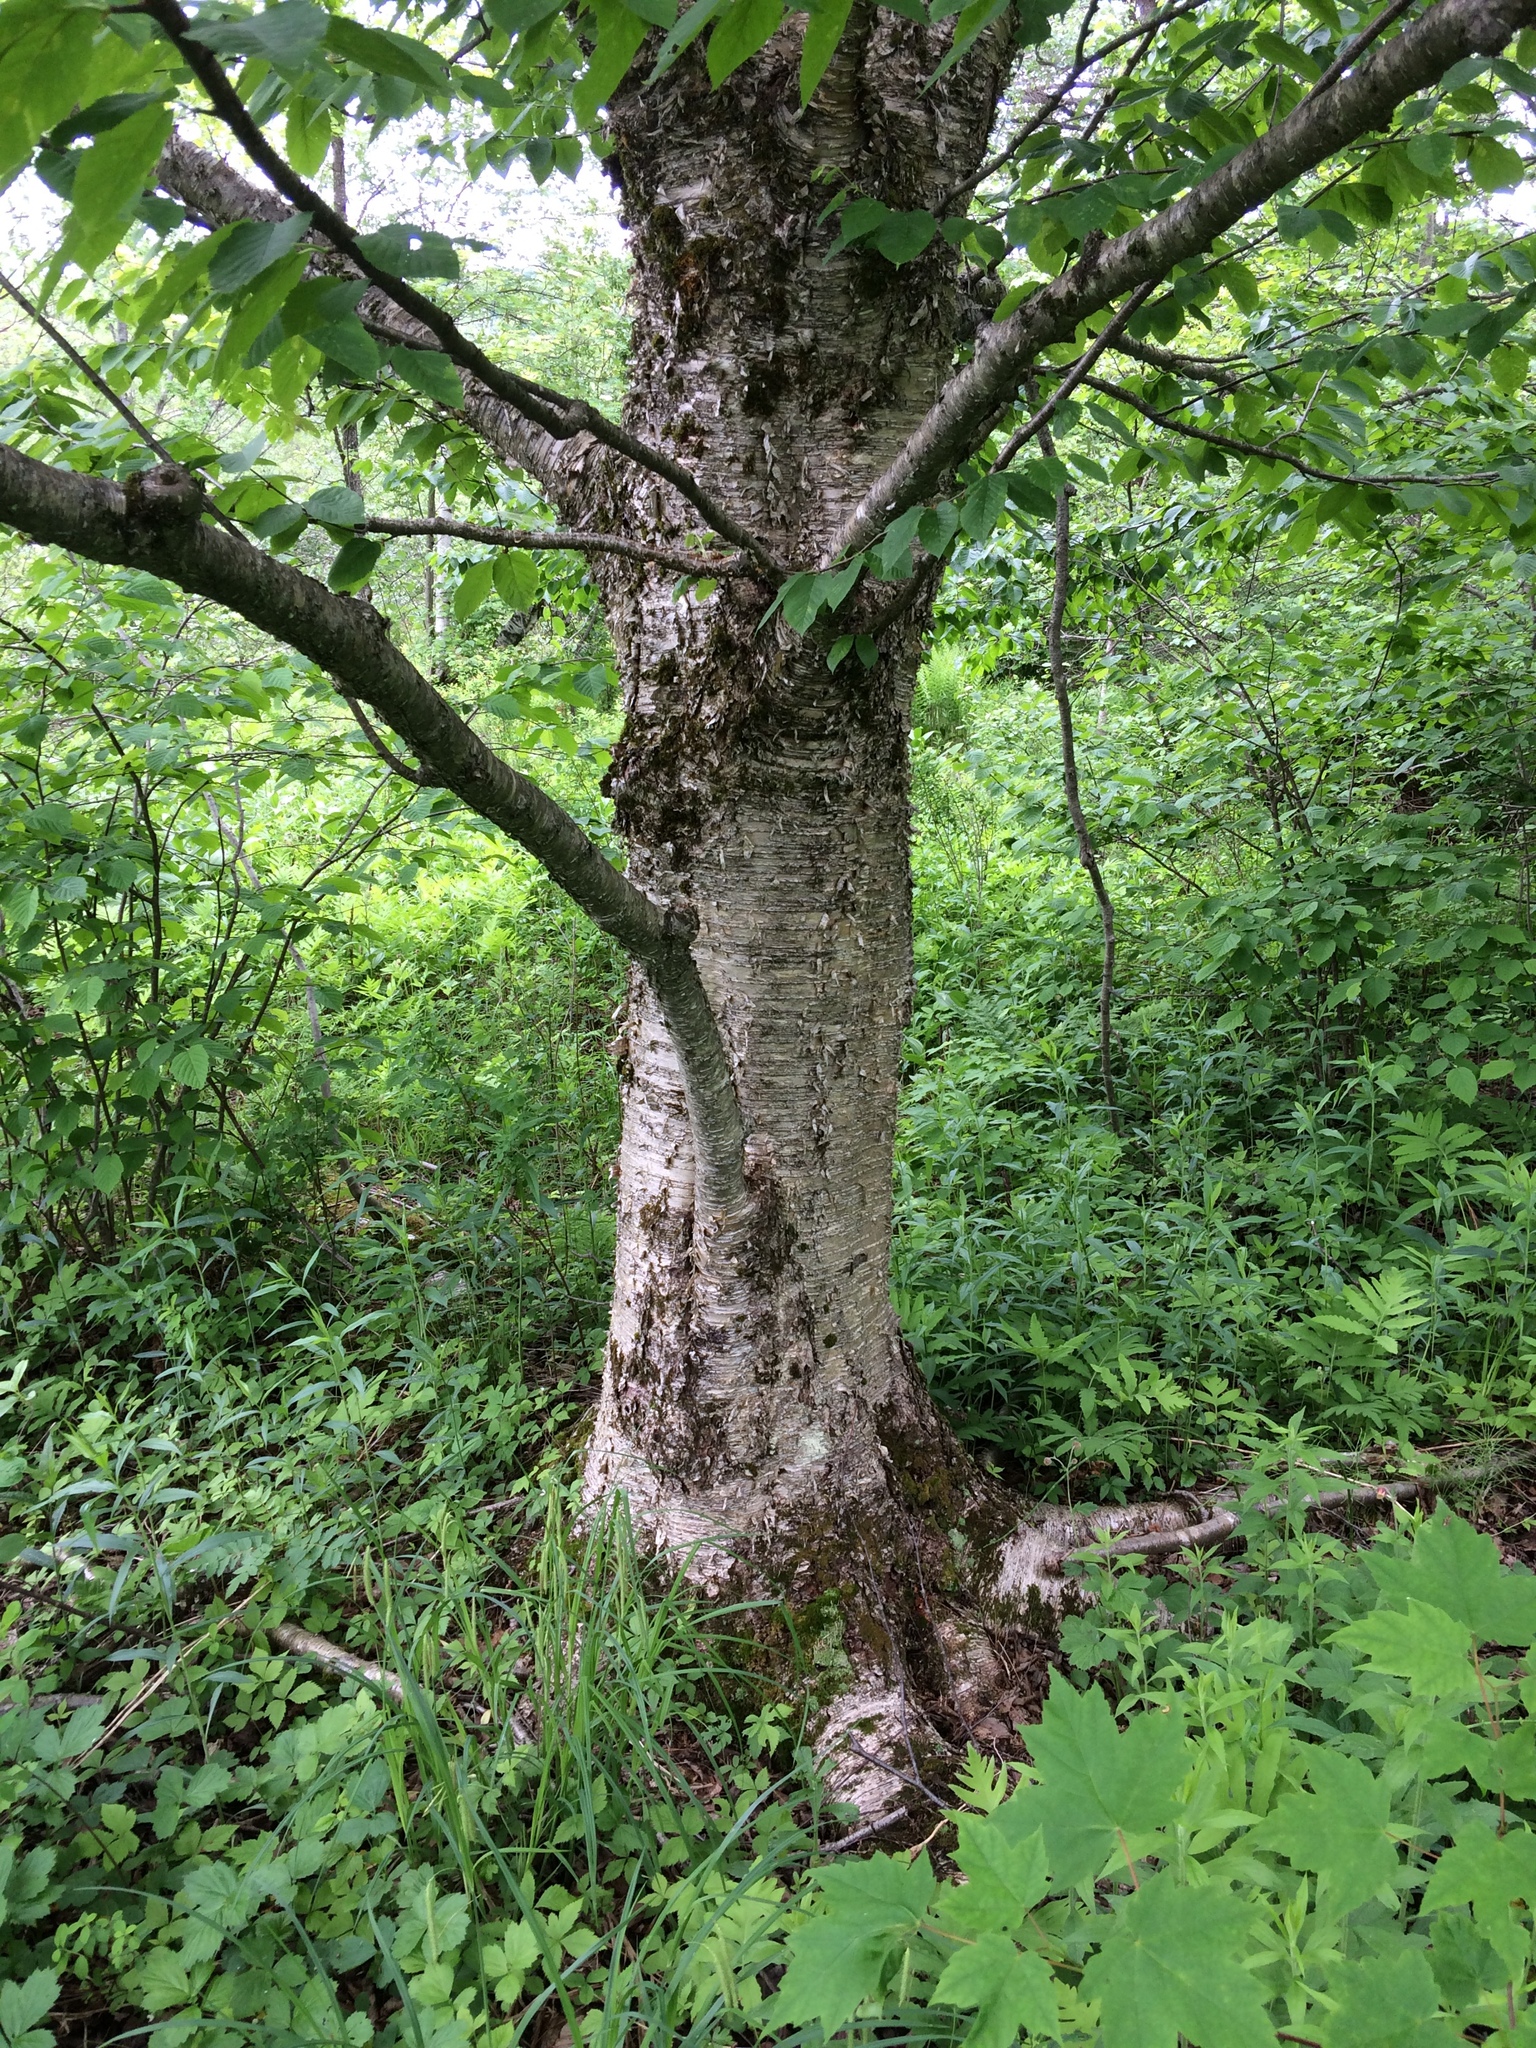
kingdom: Plantae
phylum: Tracheophyta
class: Magnoliopsida
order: Fagales
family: Betulaceae
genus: Betula
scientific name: Betula alleghaniensis
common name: Yellow birch
